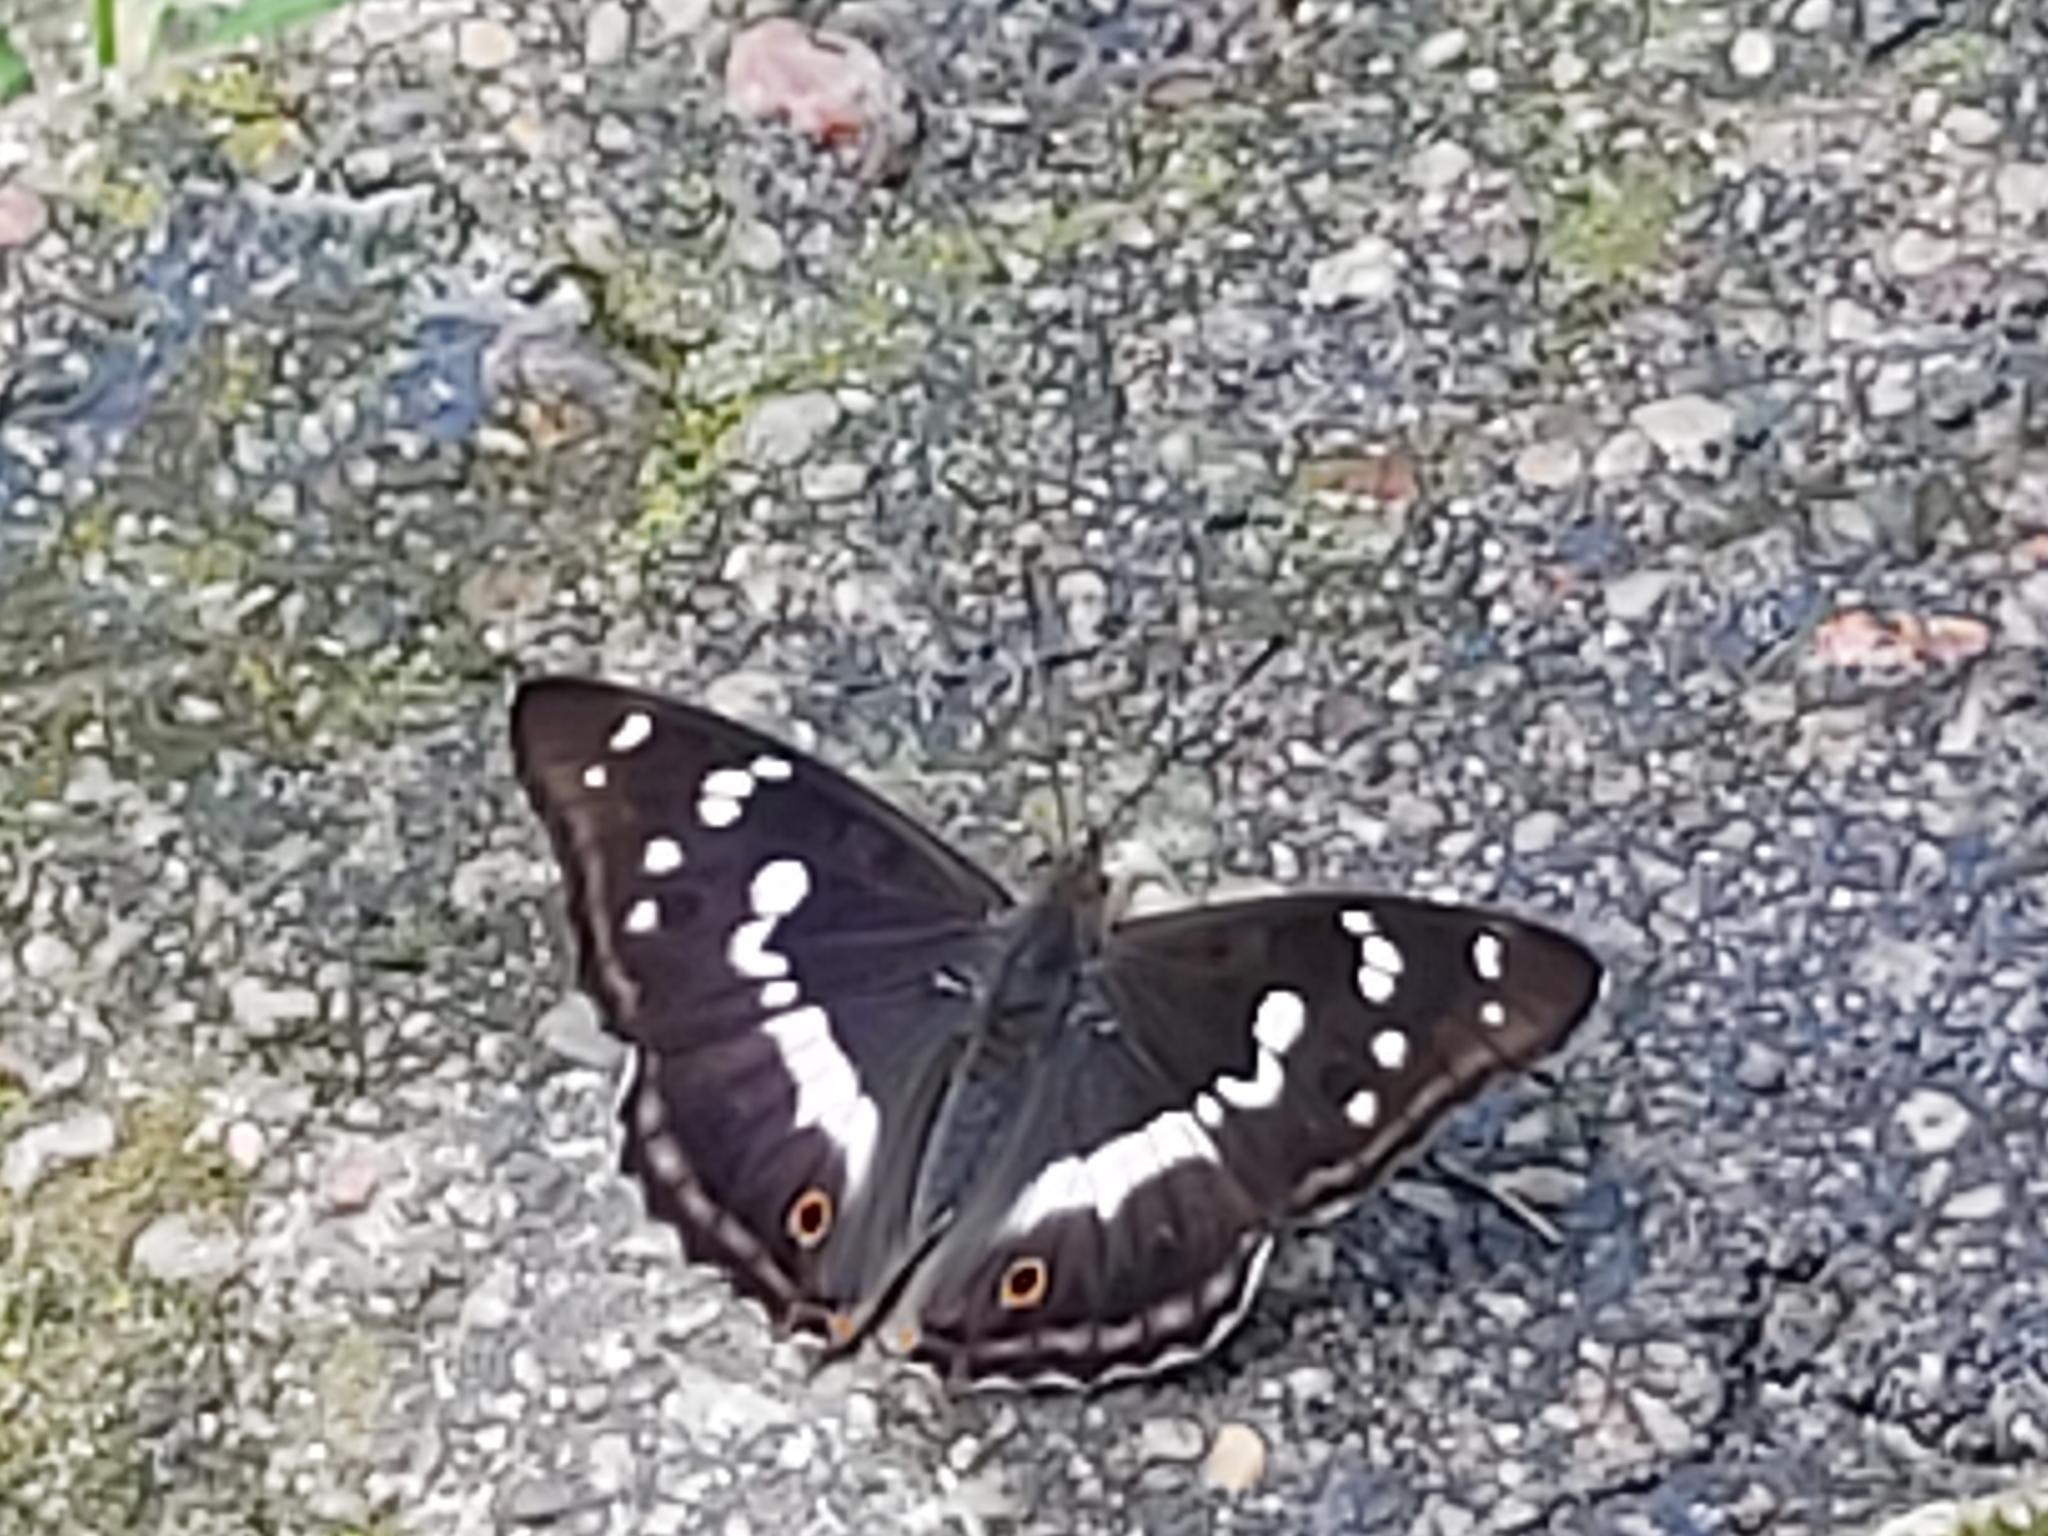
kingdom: Animalia
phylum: Arthropoda
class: Insecta
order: Lepidoptera
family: Nymphalidae
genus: Apatura
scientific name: Apatura iris
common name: Purple emperor
